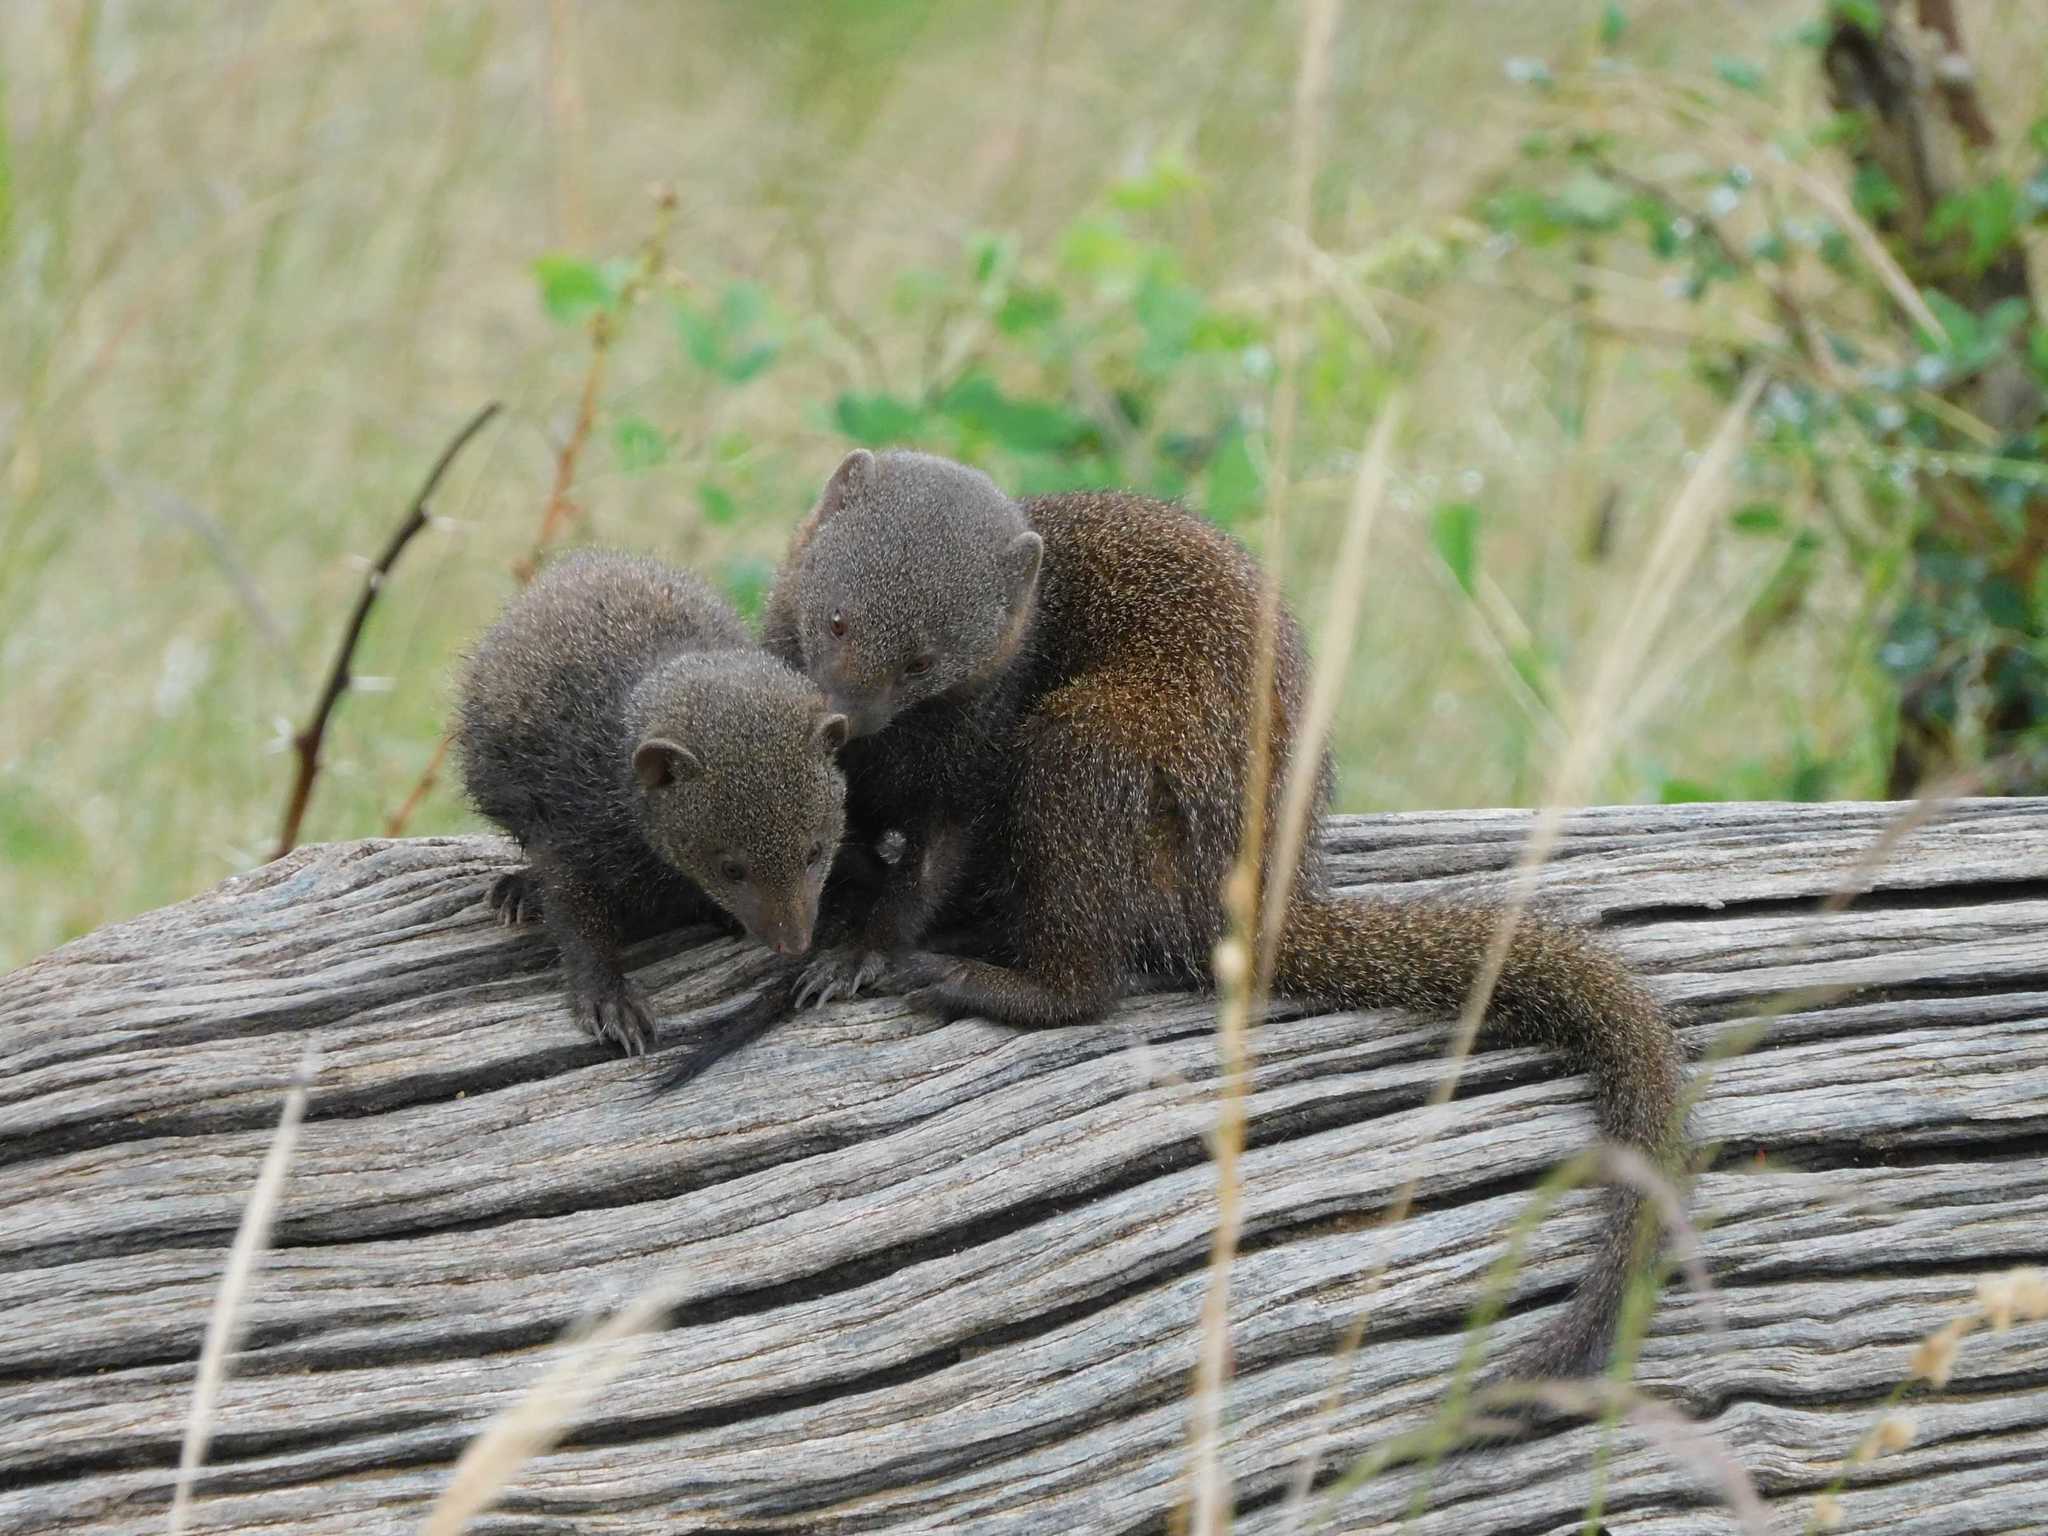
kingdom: Animalia
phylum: Chordata
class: Mammalia
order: Carnivora
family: Herpestidae
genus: Helogale
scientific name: Helogale parvula
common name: Common dwarf mongoose
